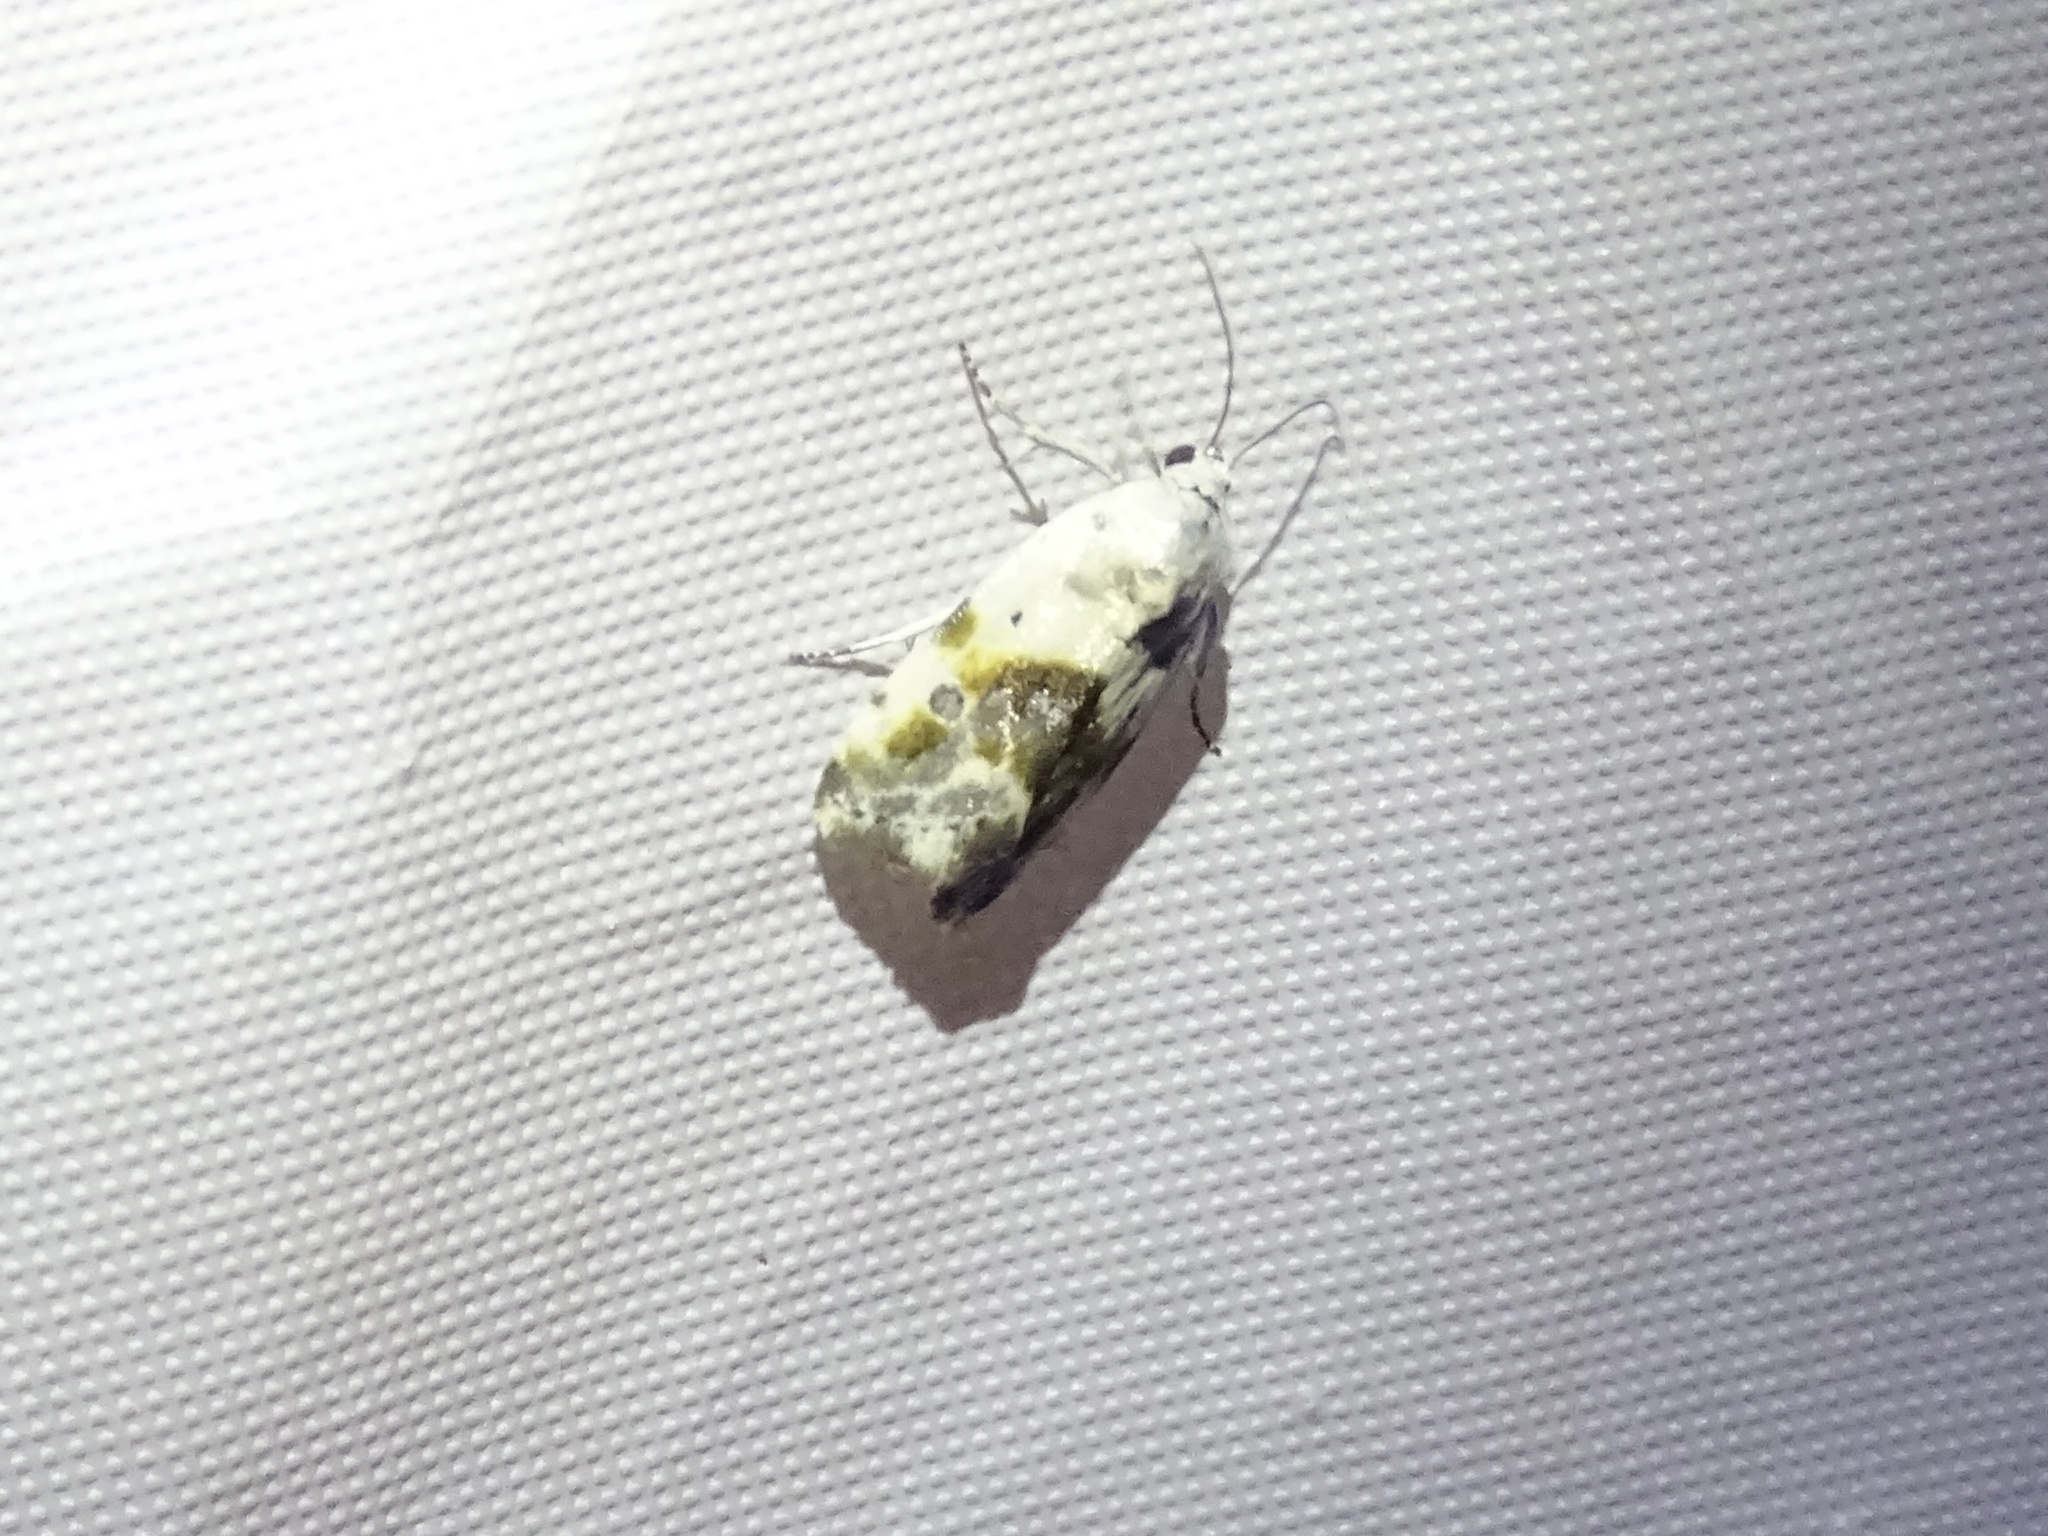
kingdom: Animalia
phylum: Arthropoda
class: Insecta
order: Lepidoptera
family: Noctuidae
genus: Acontia
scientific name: Acontia candefacta
